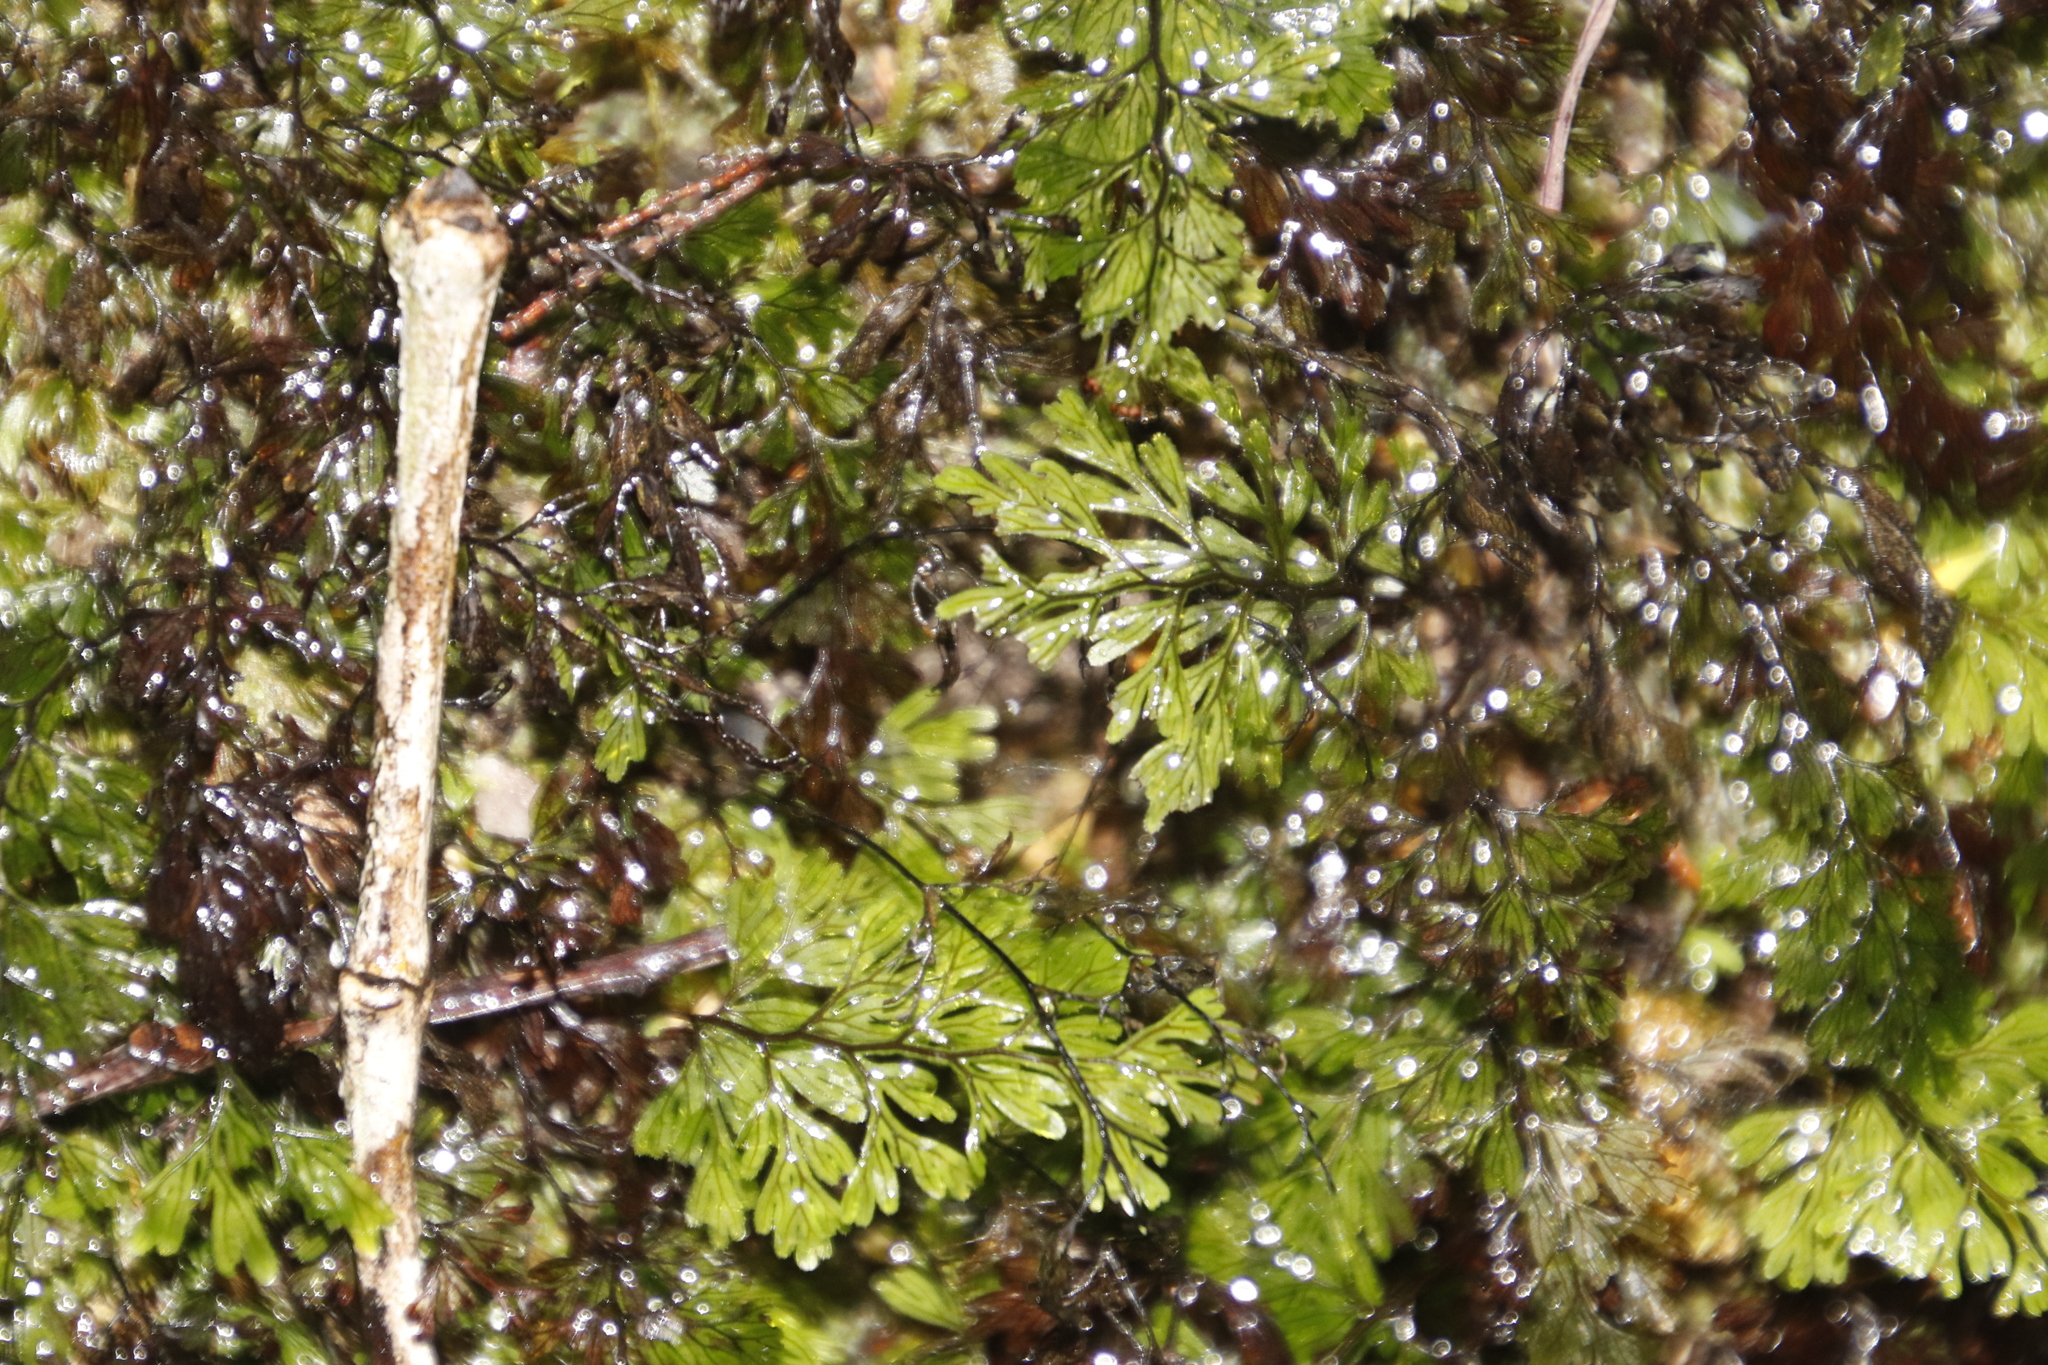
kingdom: Plantae
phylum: Tracheophyta
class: Polypodiopsida
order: Hymenophyllales
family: Hymenophyllaceae
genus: Hymenophyllum
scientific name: Hymenophyllum tunbrigense
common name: Tunbridge filmy fern
